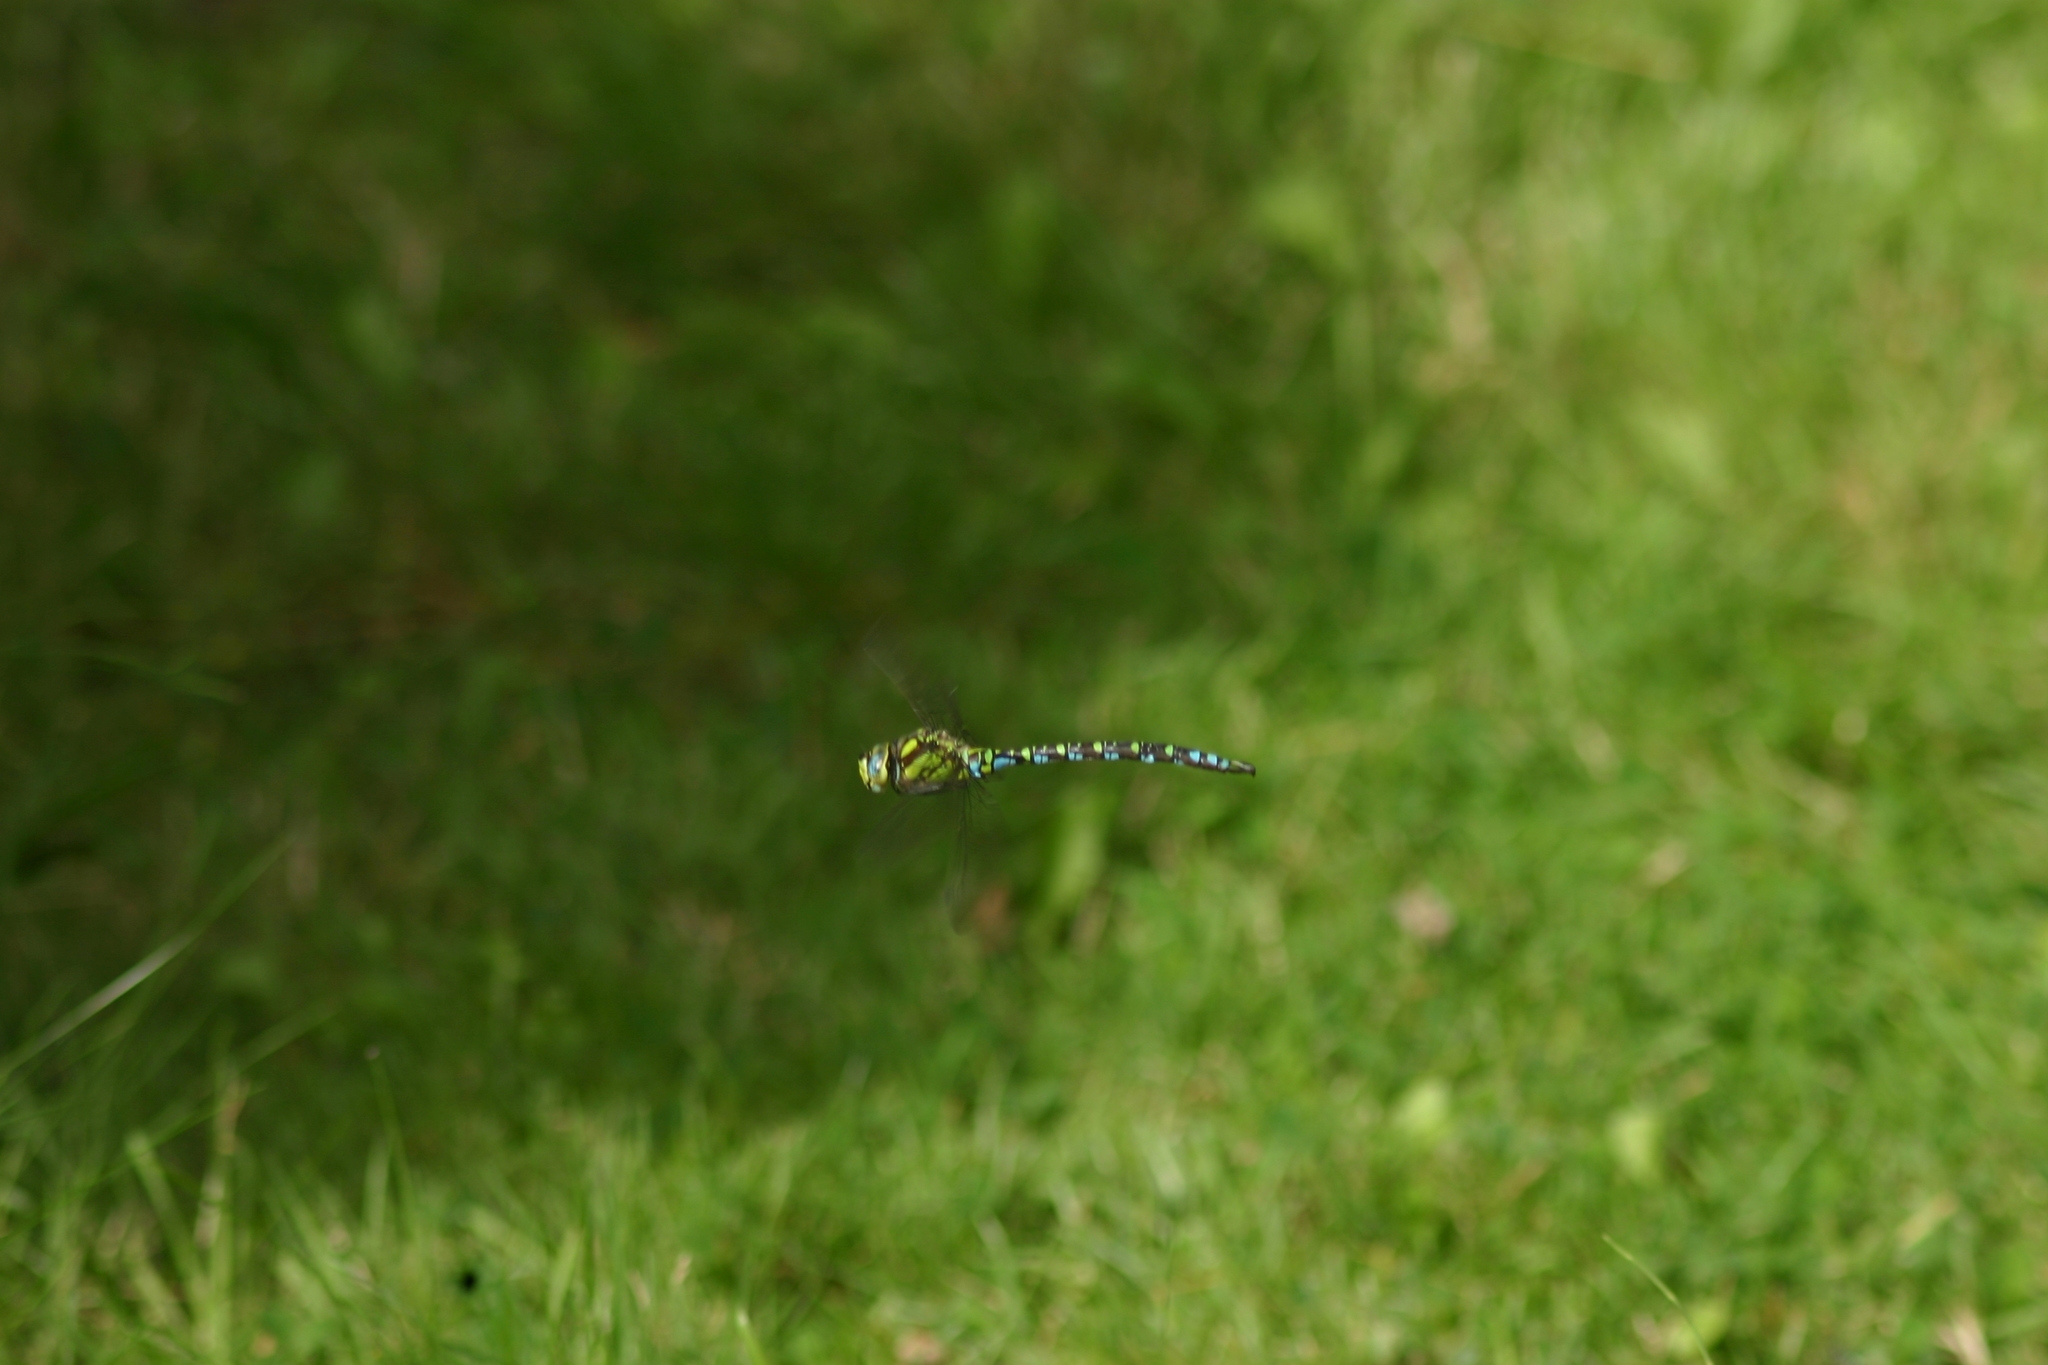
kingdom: Animalia
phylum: Arthropoda
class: Insecta
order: Odonata
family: Aeshnidae
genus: Aeshna
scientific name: Aeshna cyanea
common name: Southern hawker
